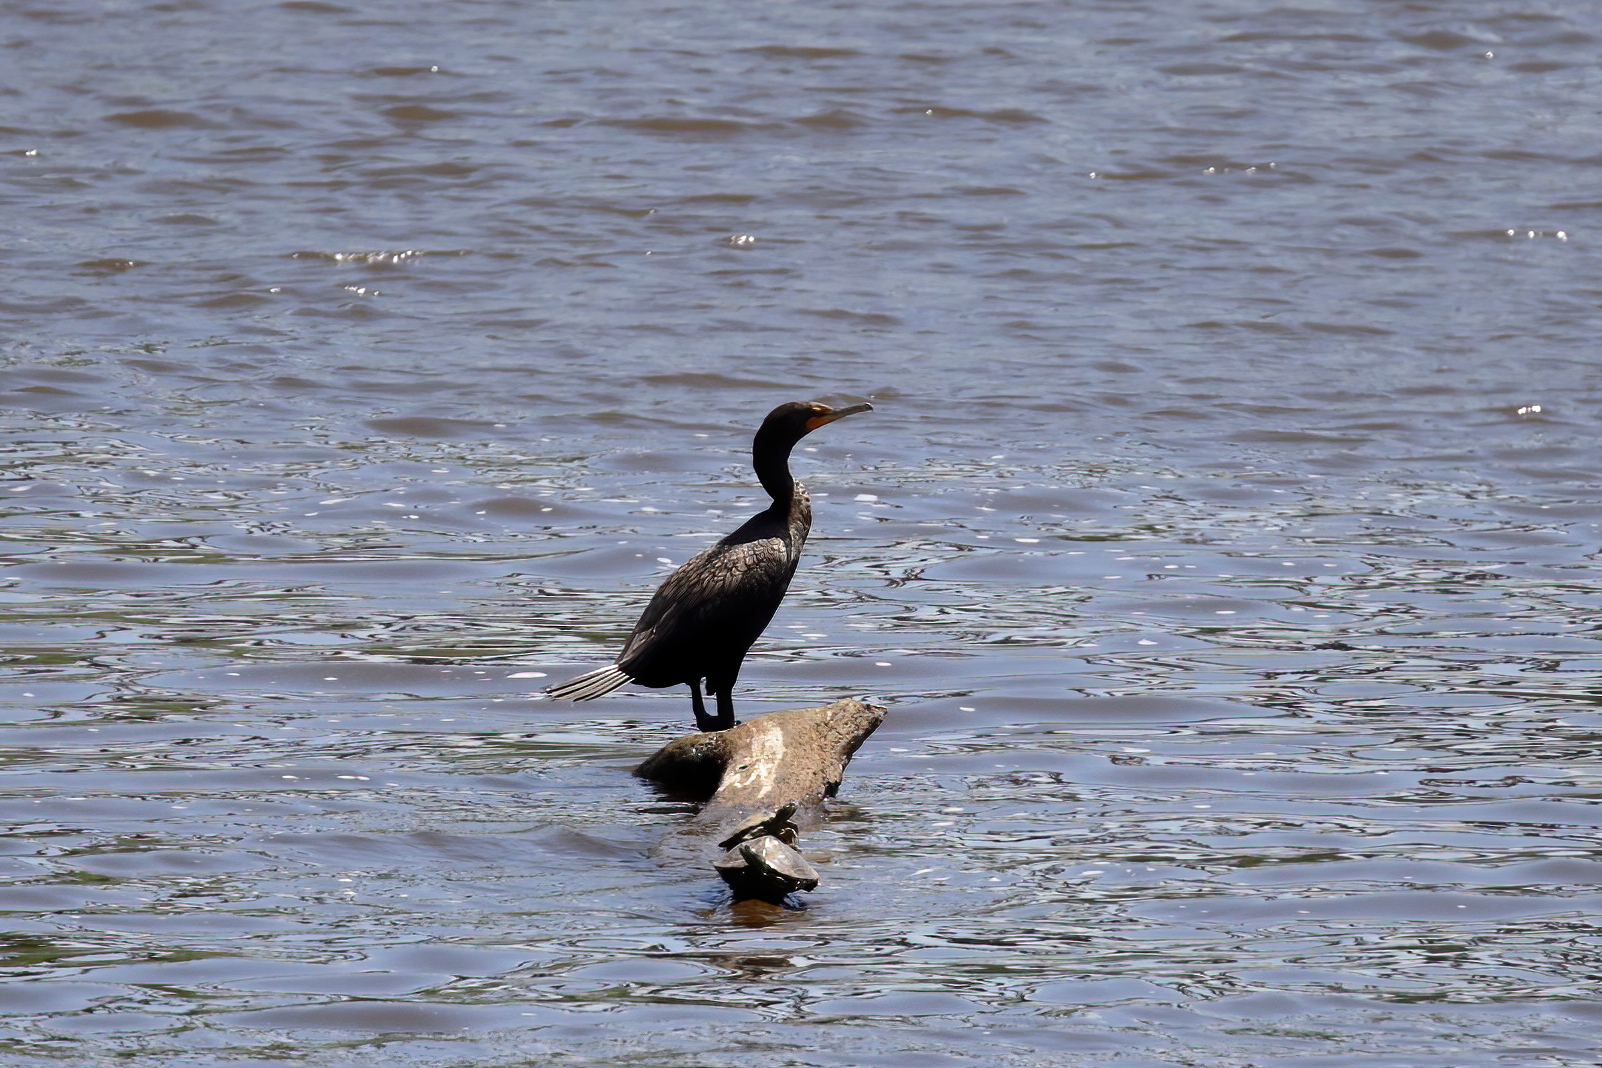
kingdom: Animalia
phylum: Chordata
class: Aves
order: Suliformes
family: Phalacrocoracidae
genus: Phalacrocorax
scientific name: Phalacrocorax auritus
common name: Double-crested cormorant
